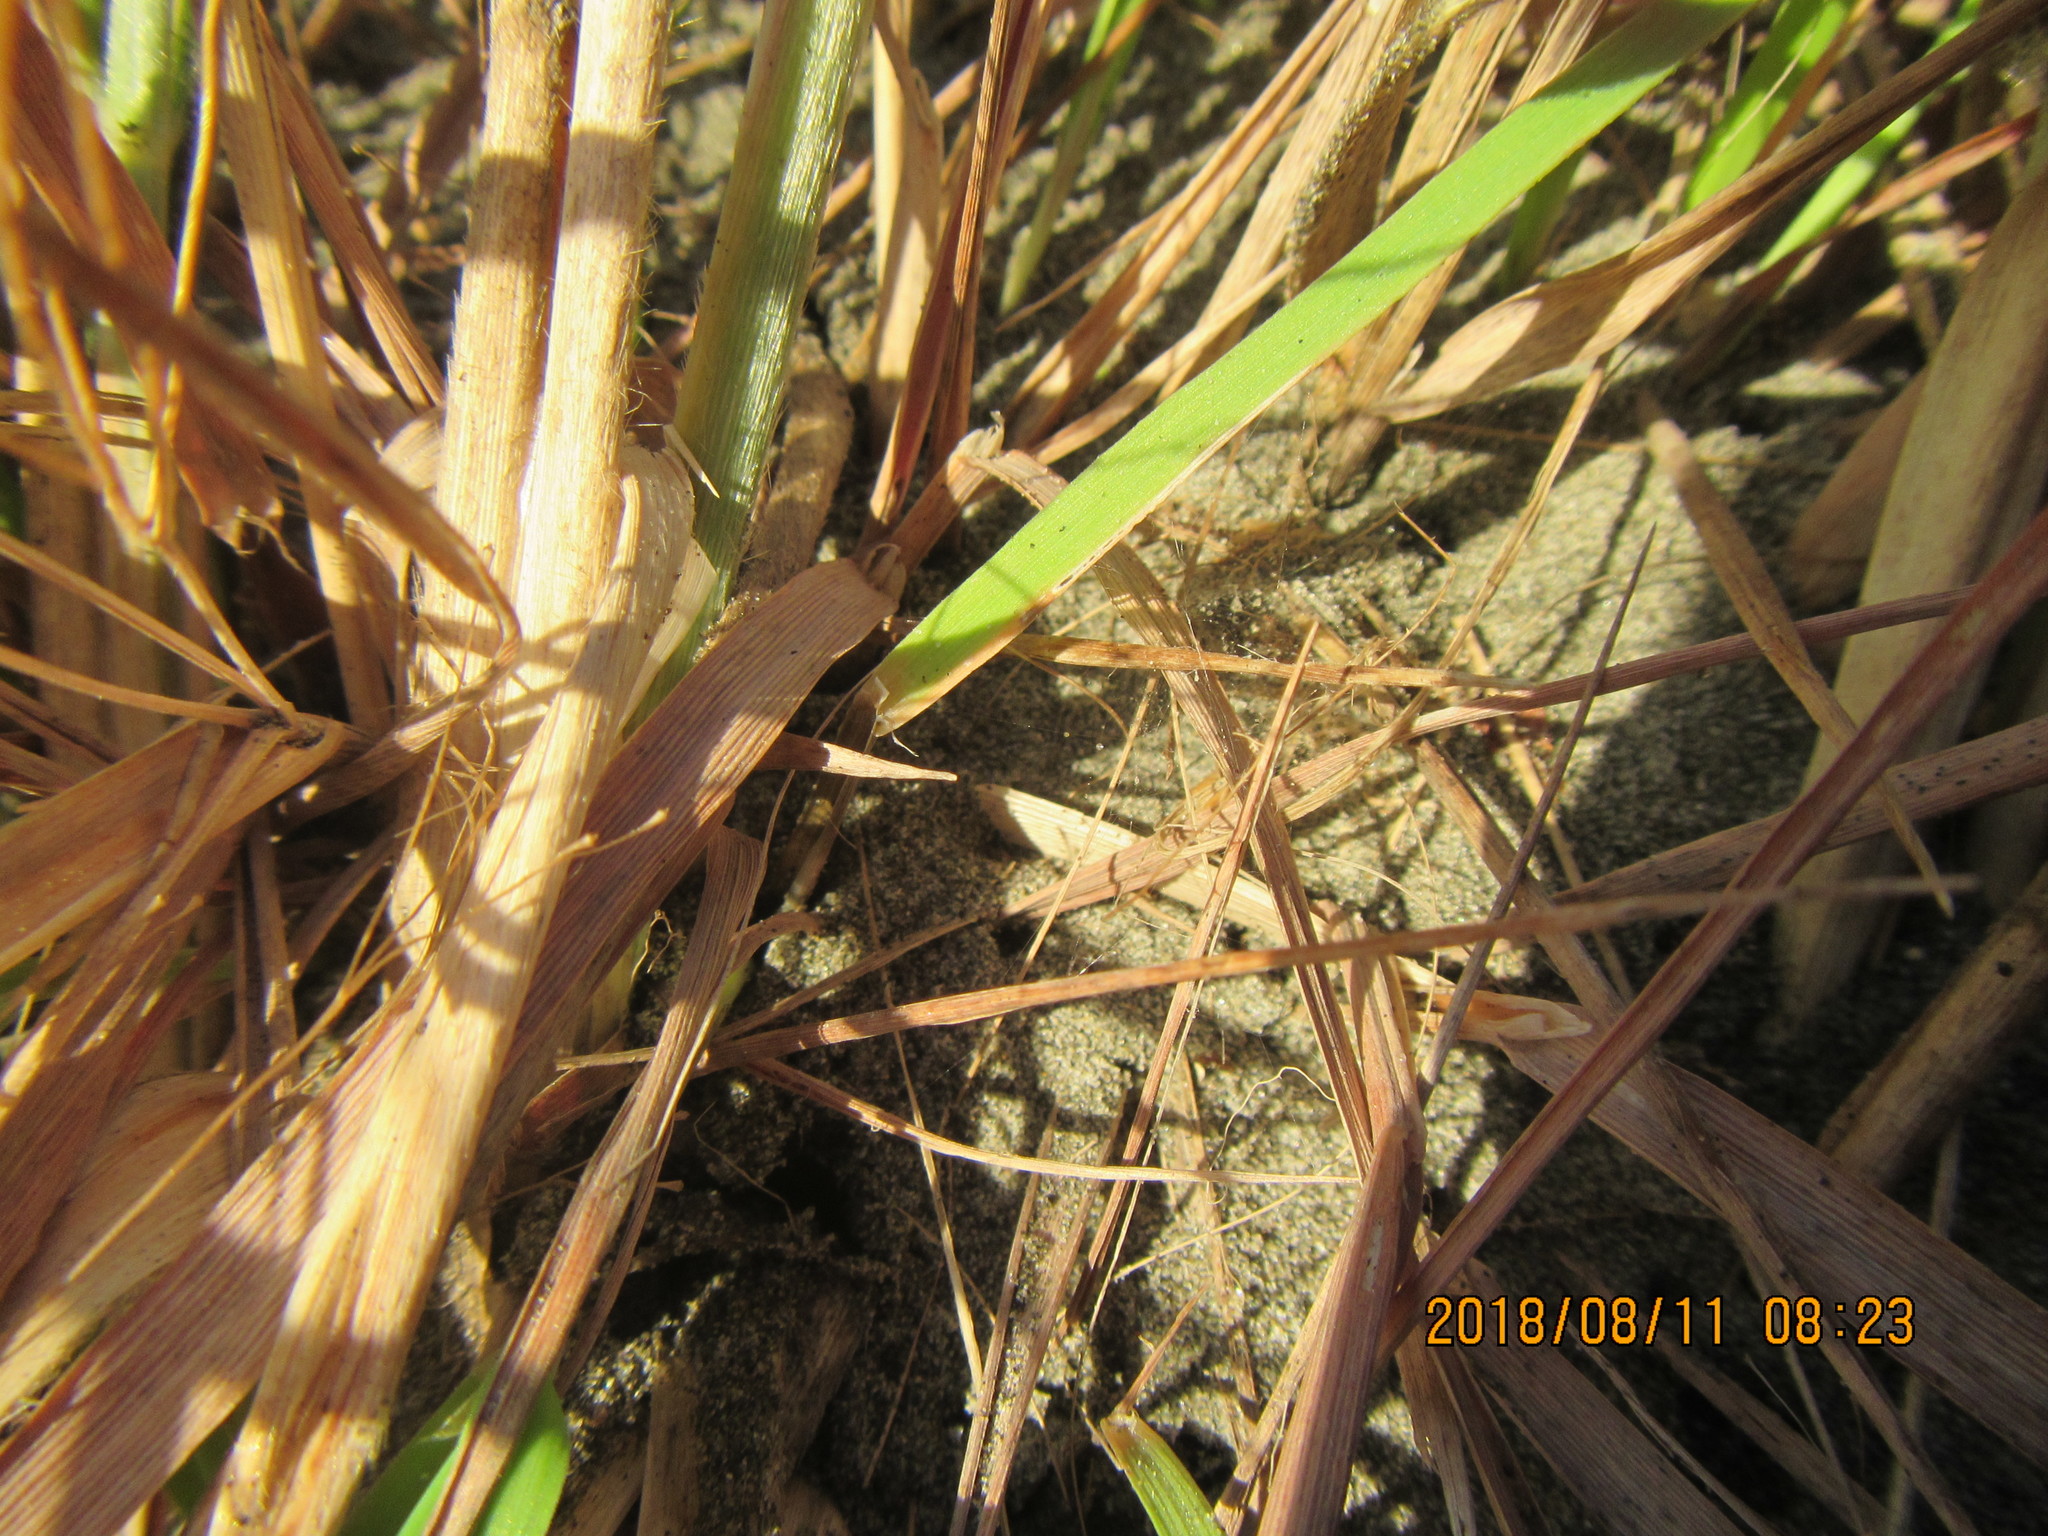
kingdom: Animalia
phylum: Arthropoda
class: Arachnida
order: Araneae
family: Theridiidae
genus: Latrodectus
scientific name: Latrodectus katipo
